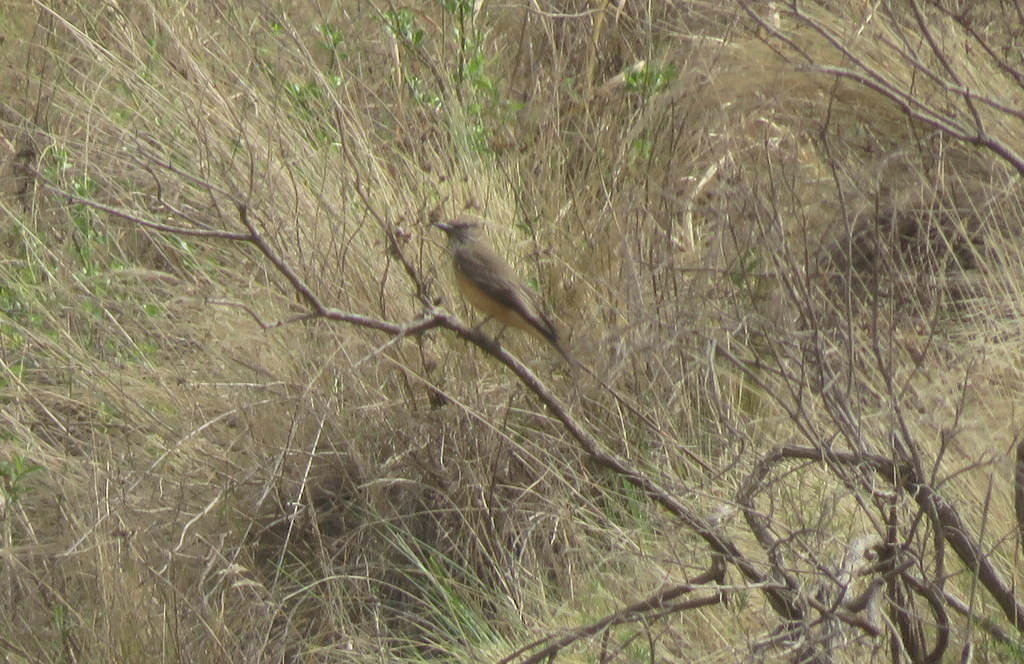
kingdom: Animalia
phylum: Chordata
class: Aves
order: Passeriformes
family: Tyrannidae
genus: Myiotheretes
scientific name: Myiotheretes striaticollis
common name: Streak-throated bush tyrant
